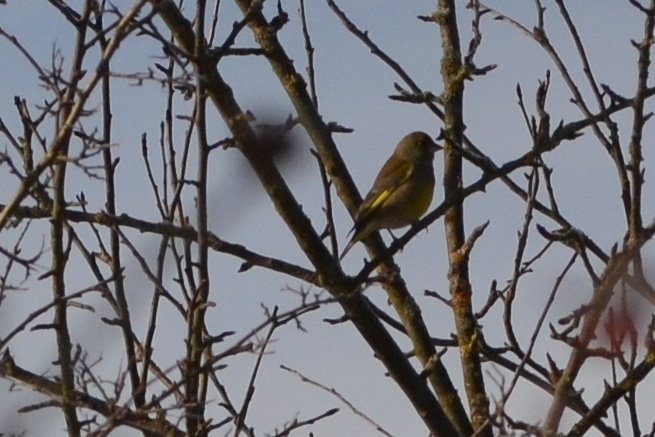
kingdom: Plantae
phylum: Tracheophyta
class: Liliopsida
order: Poales
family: Poaceae
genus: Chloris
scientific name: Chloris chloris
